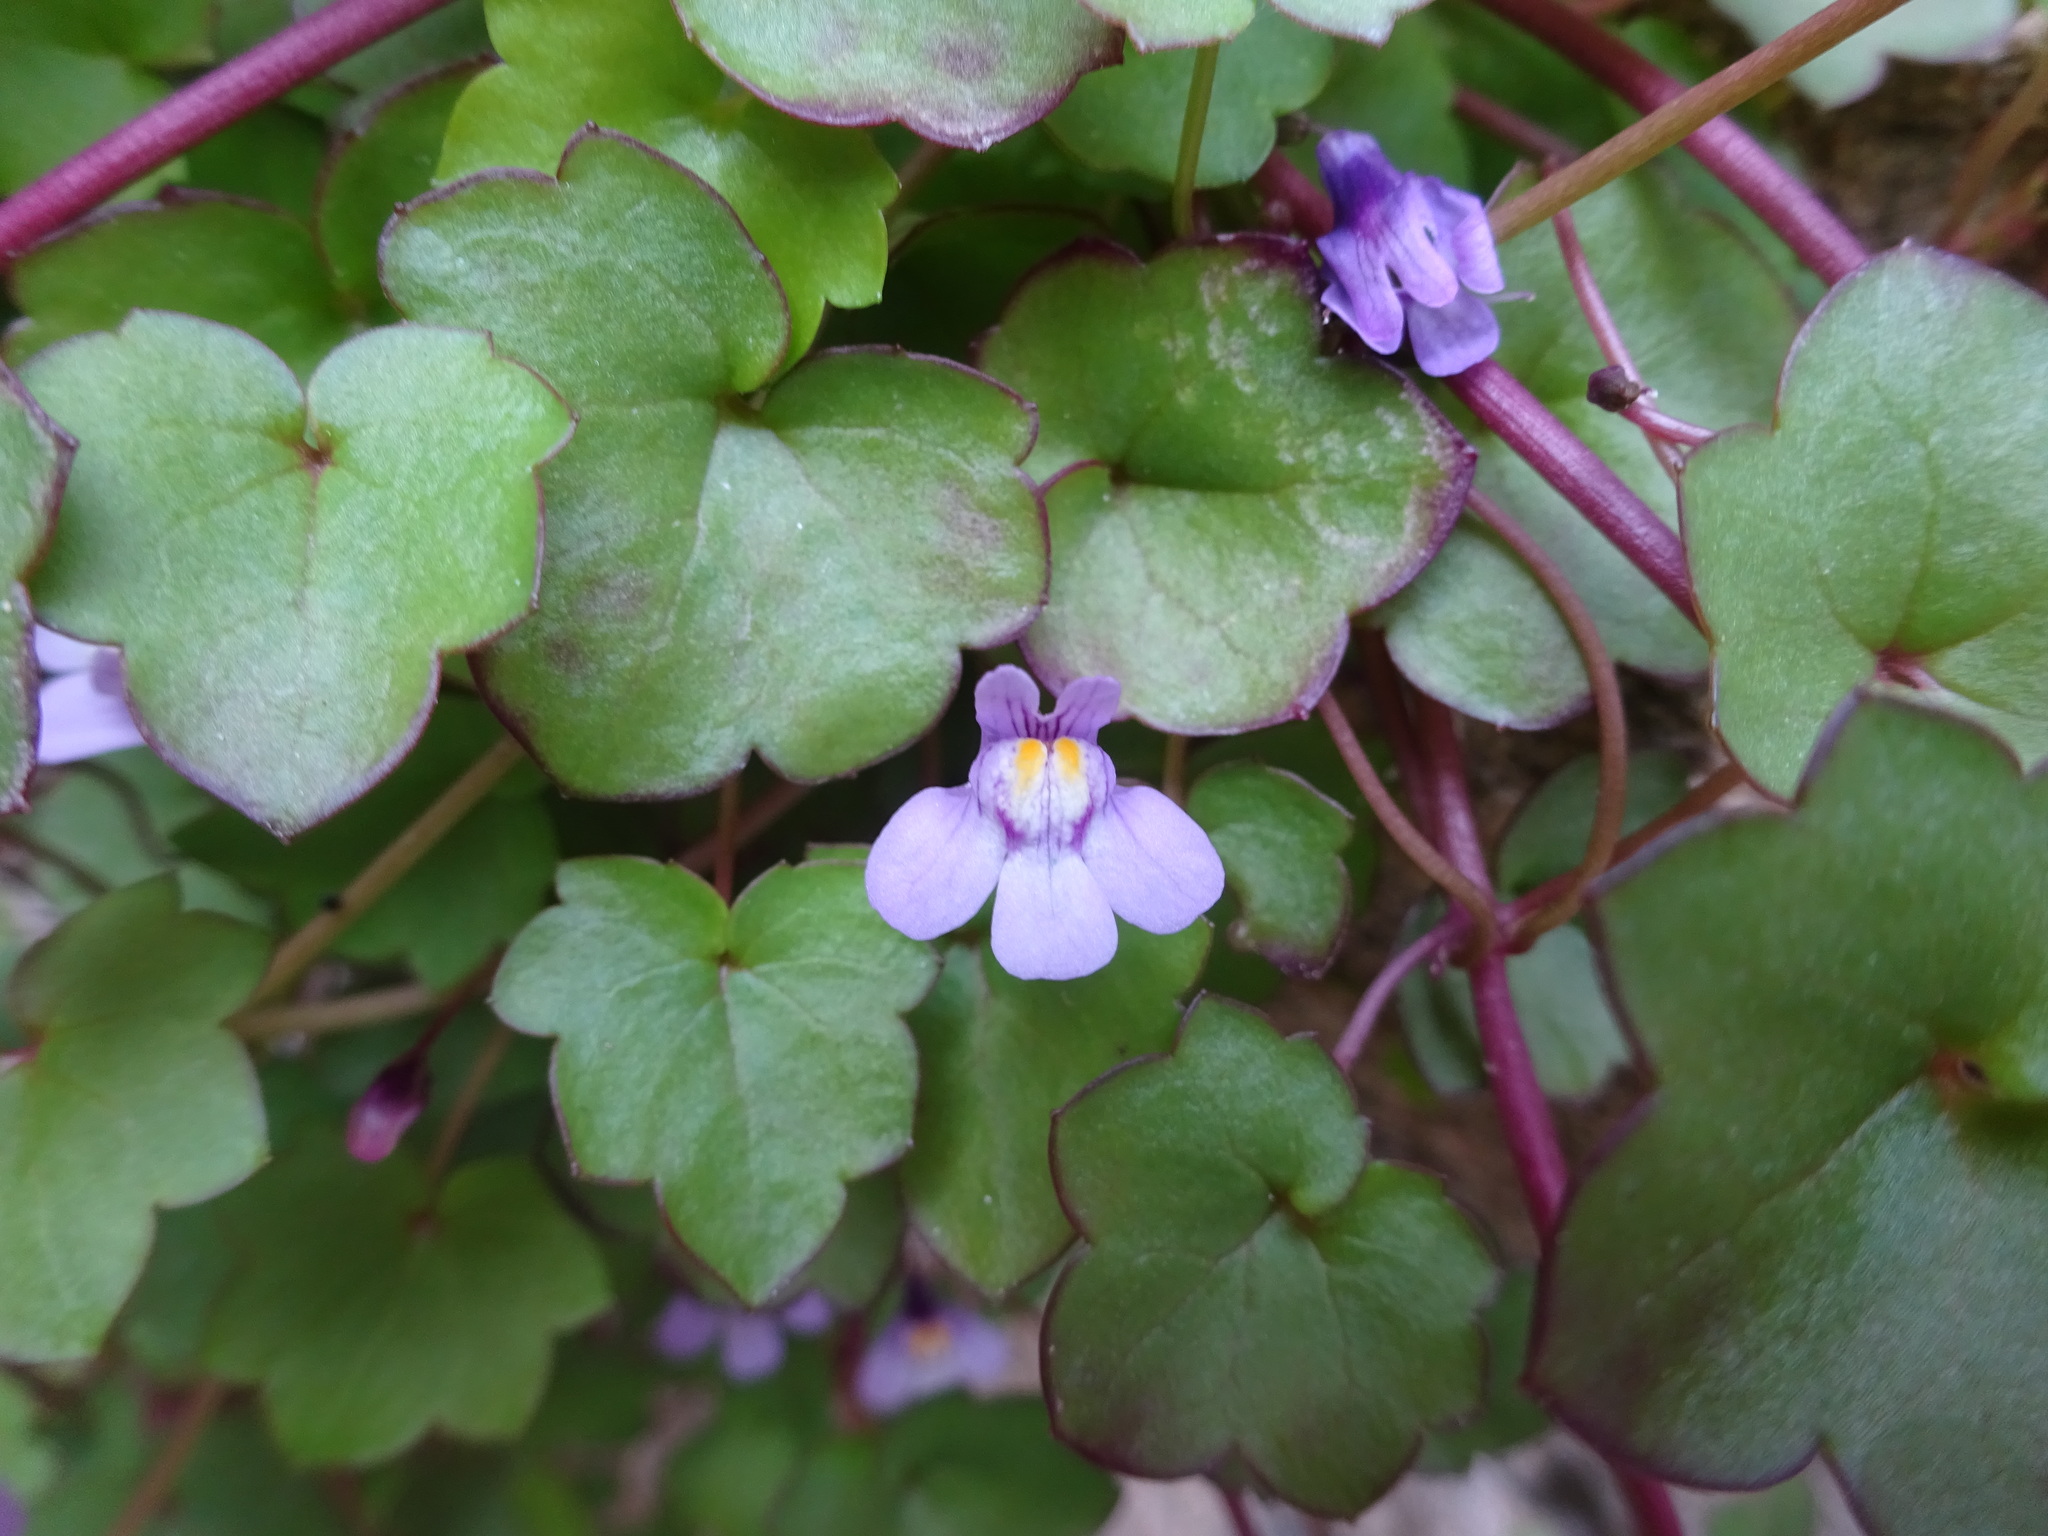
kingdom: Plantae
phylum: Tracheophyta
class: Magnoliopsida
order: Lamiales
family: Plantaginaceae
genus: Cymbalaria
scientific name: Cymbalaria muralis
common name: Ivy-leaved toadflax
